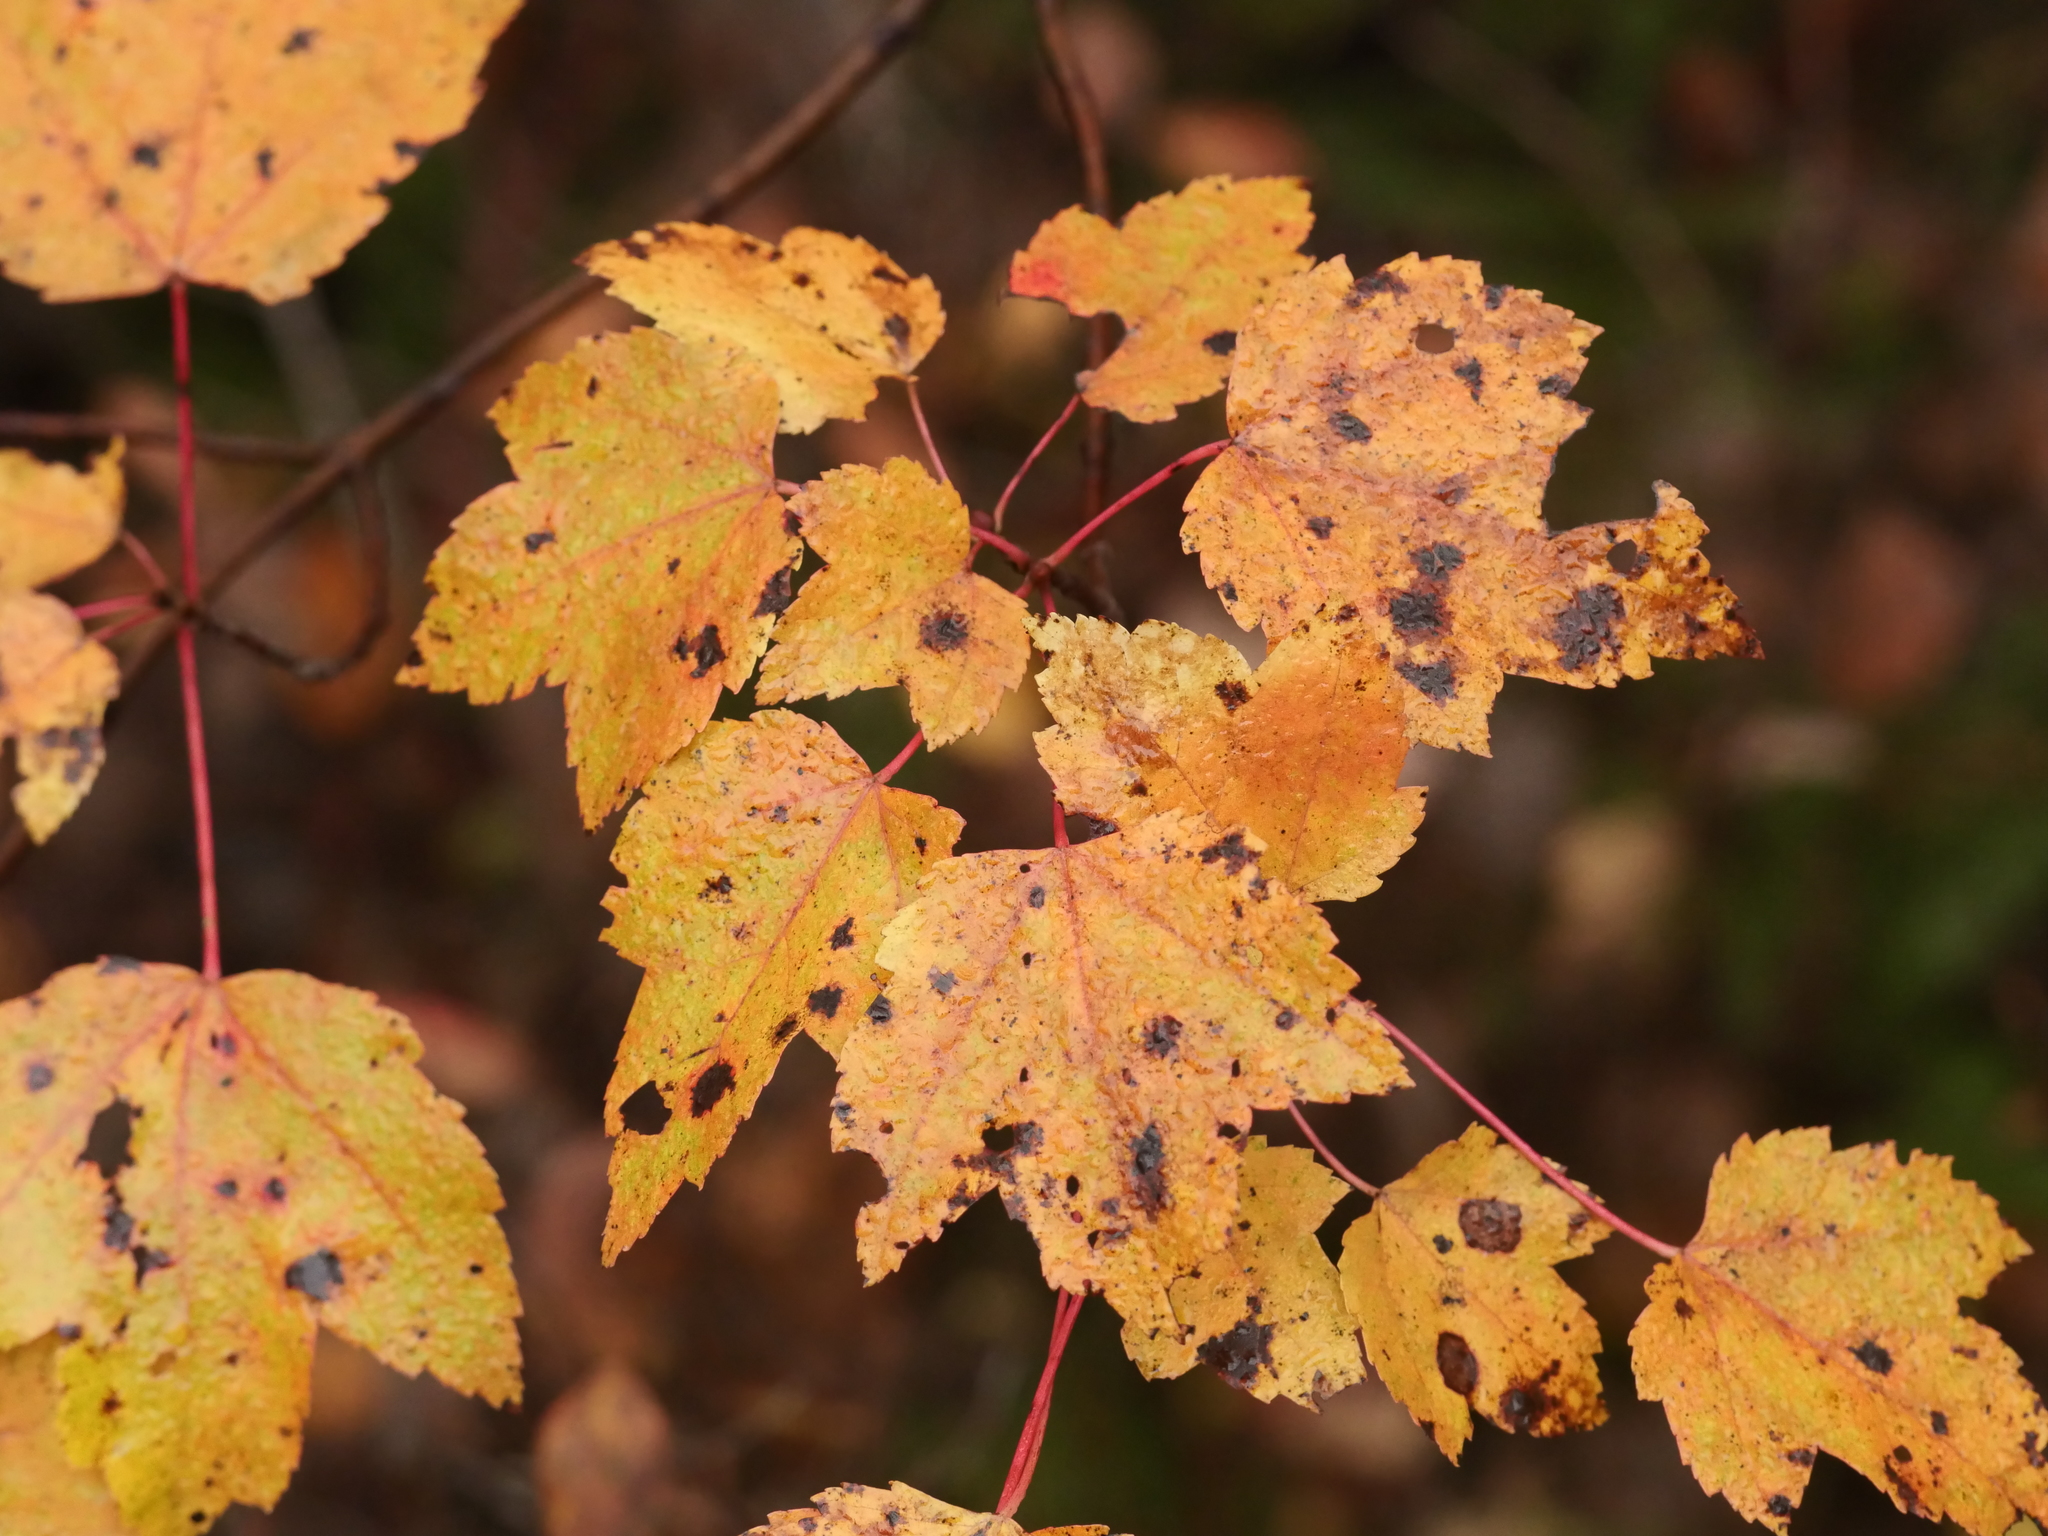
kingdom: Plantae
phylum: Tracheophyta
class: Magnoliopsida
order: Sapindales
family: Sapindaceae
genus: Acer
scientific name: Acer rubrum
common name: Red maple
